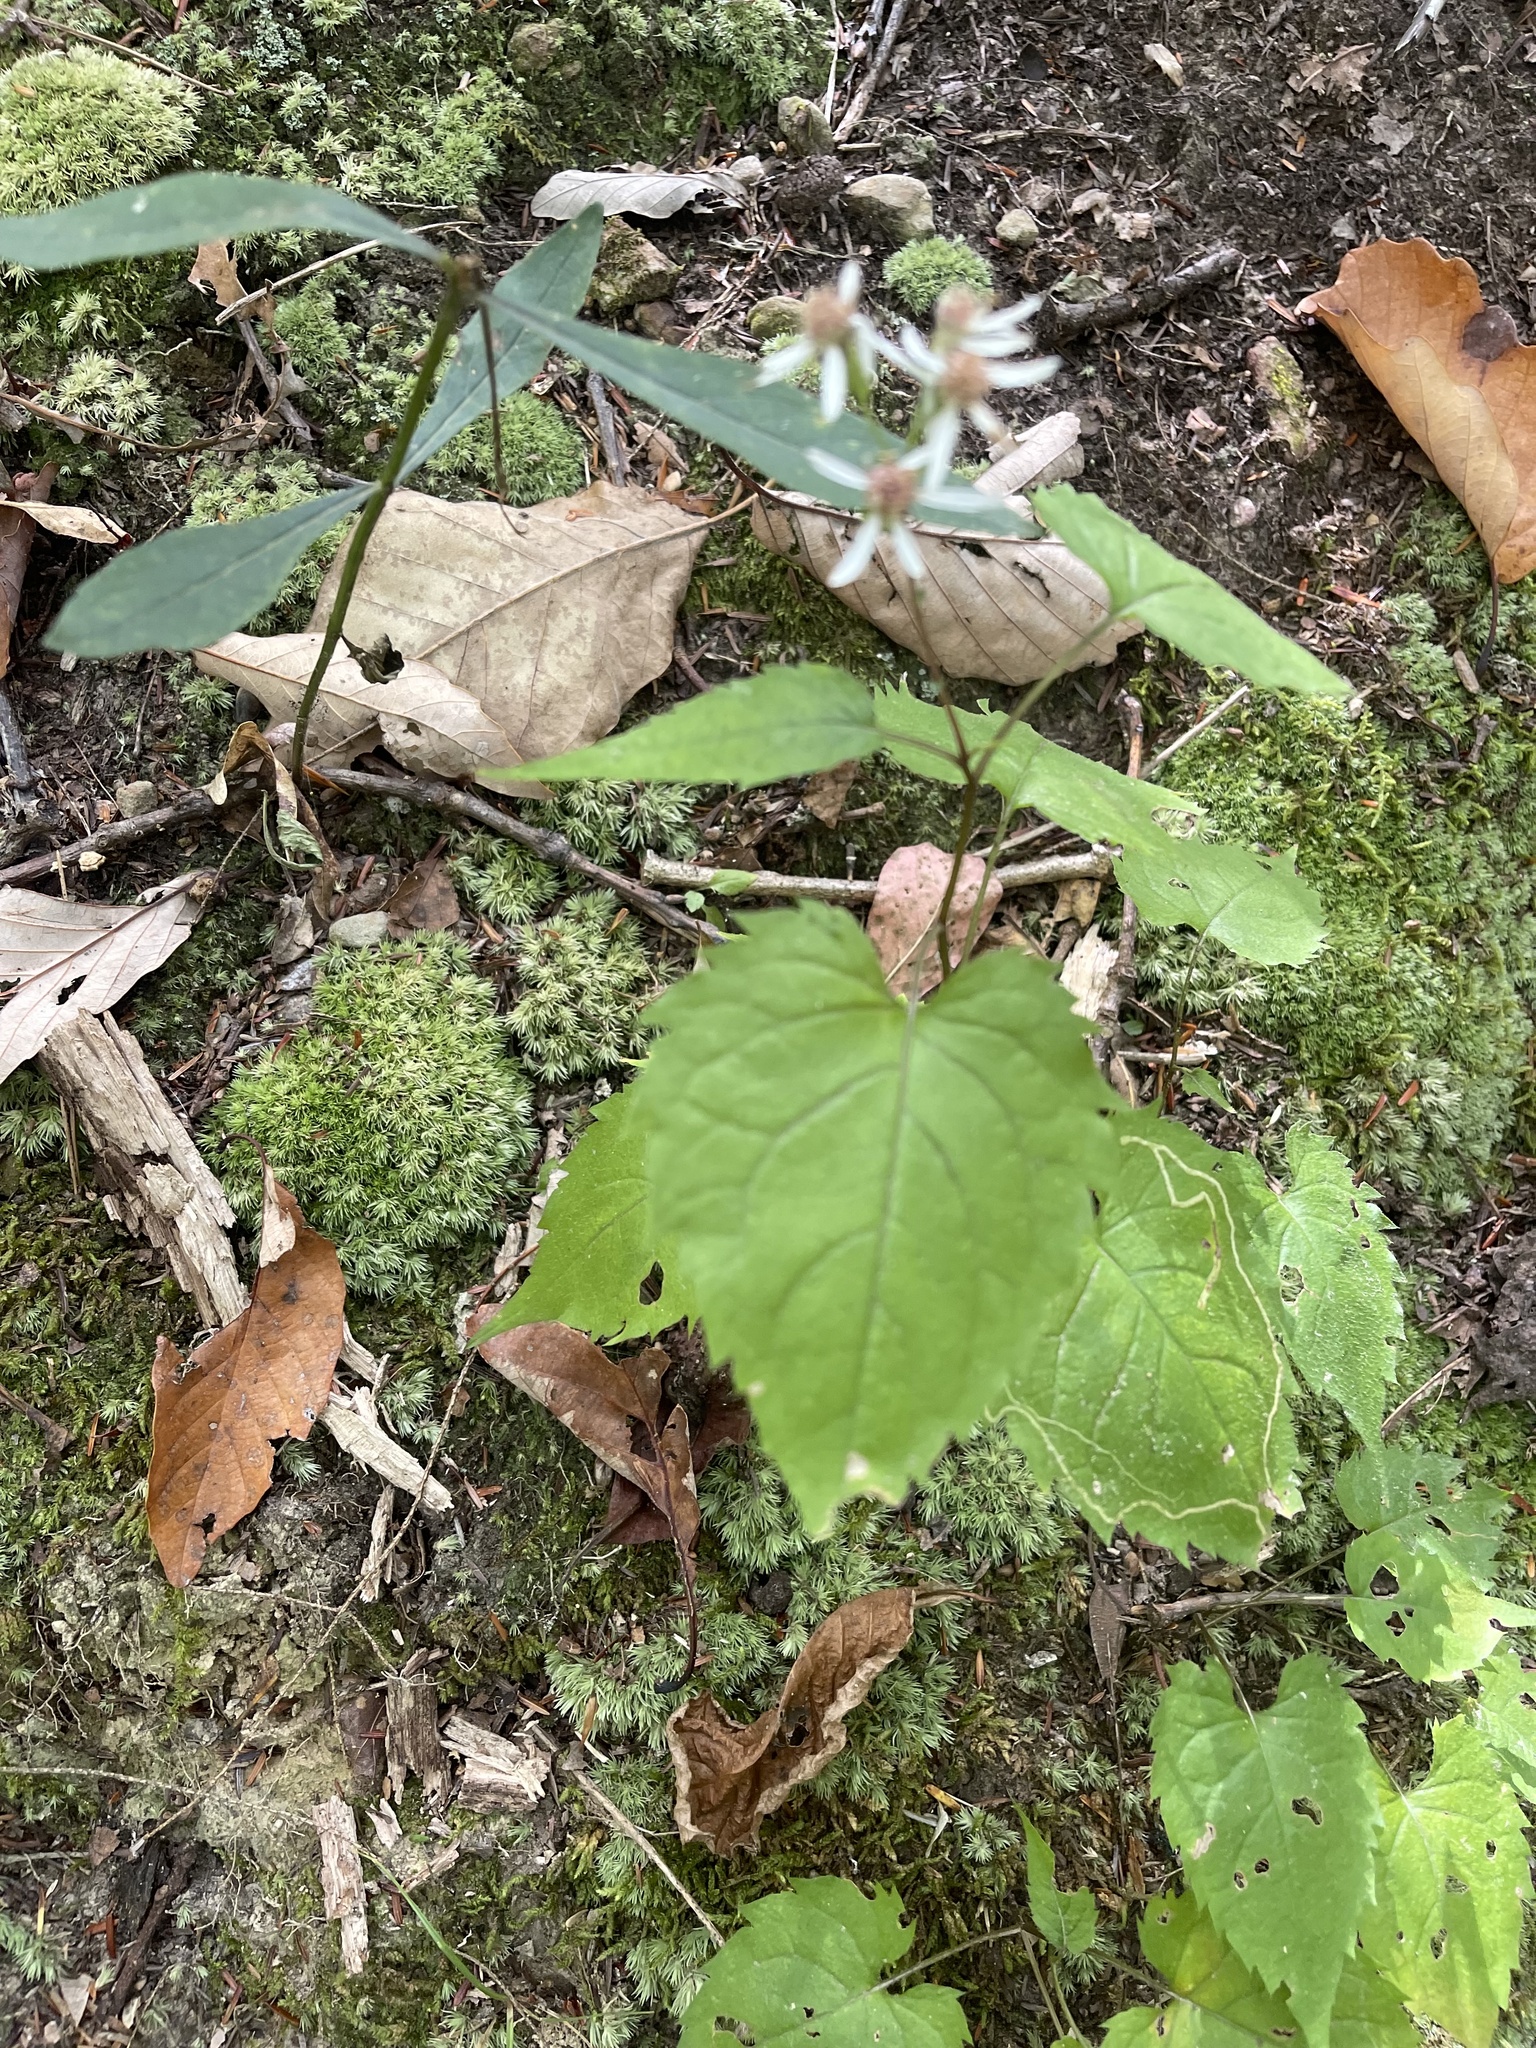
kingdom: Plantae
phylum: Tracheophyta
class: Magnoliopsida
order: Asterales
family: Asteraceae
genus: Eurybia
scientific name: Eurybia divaricata
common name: White wood aster
